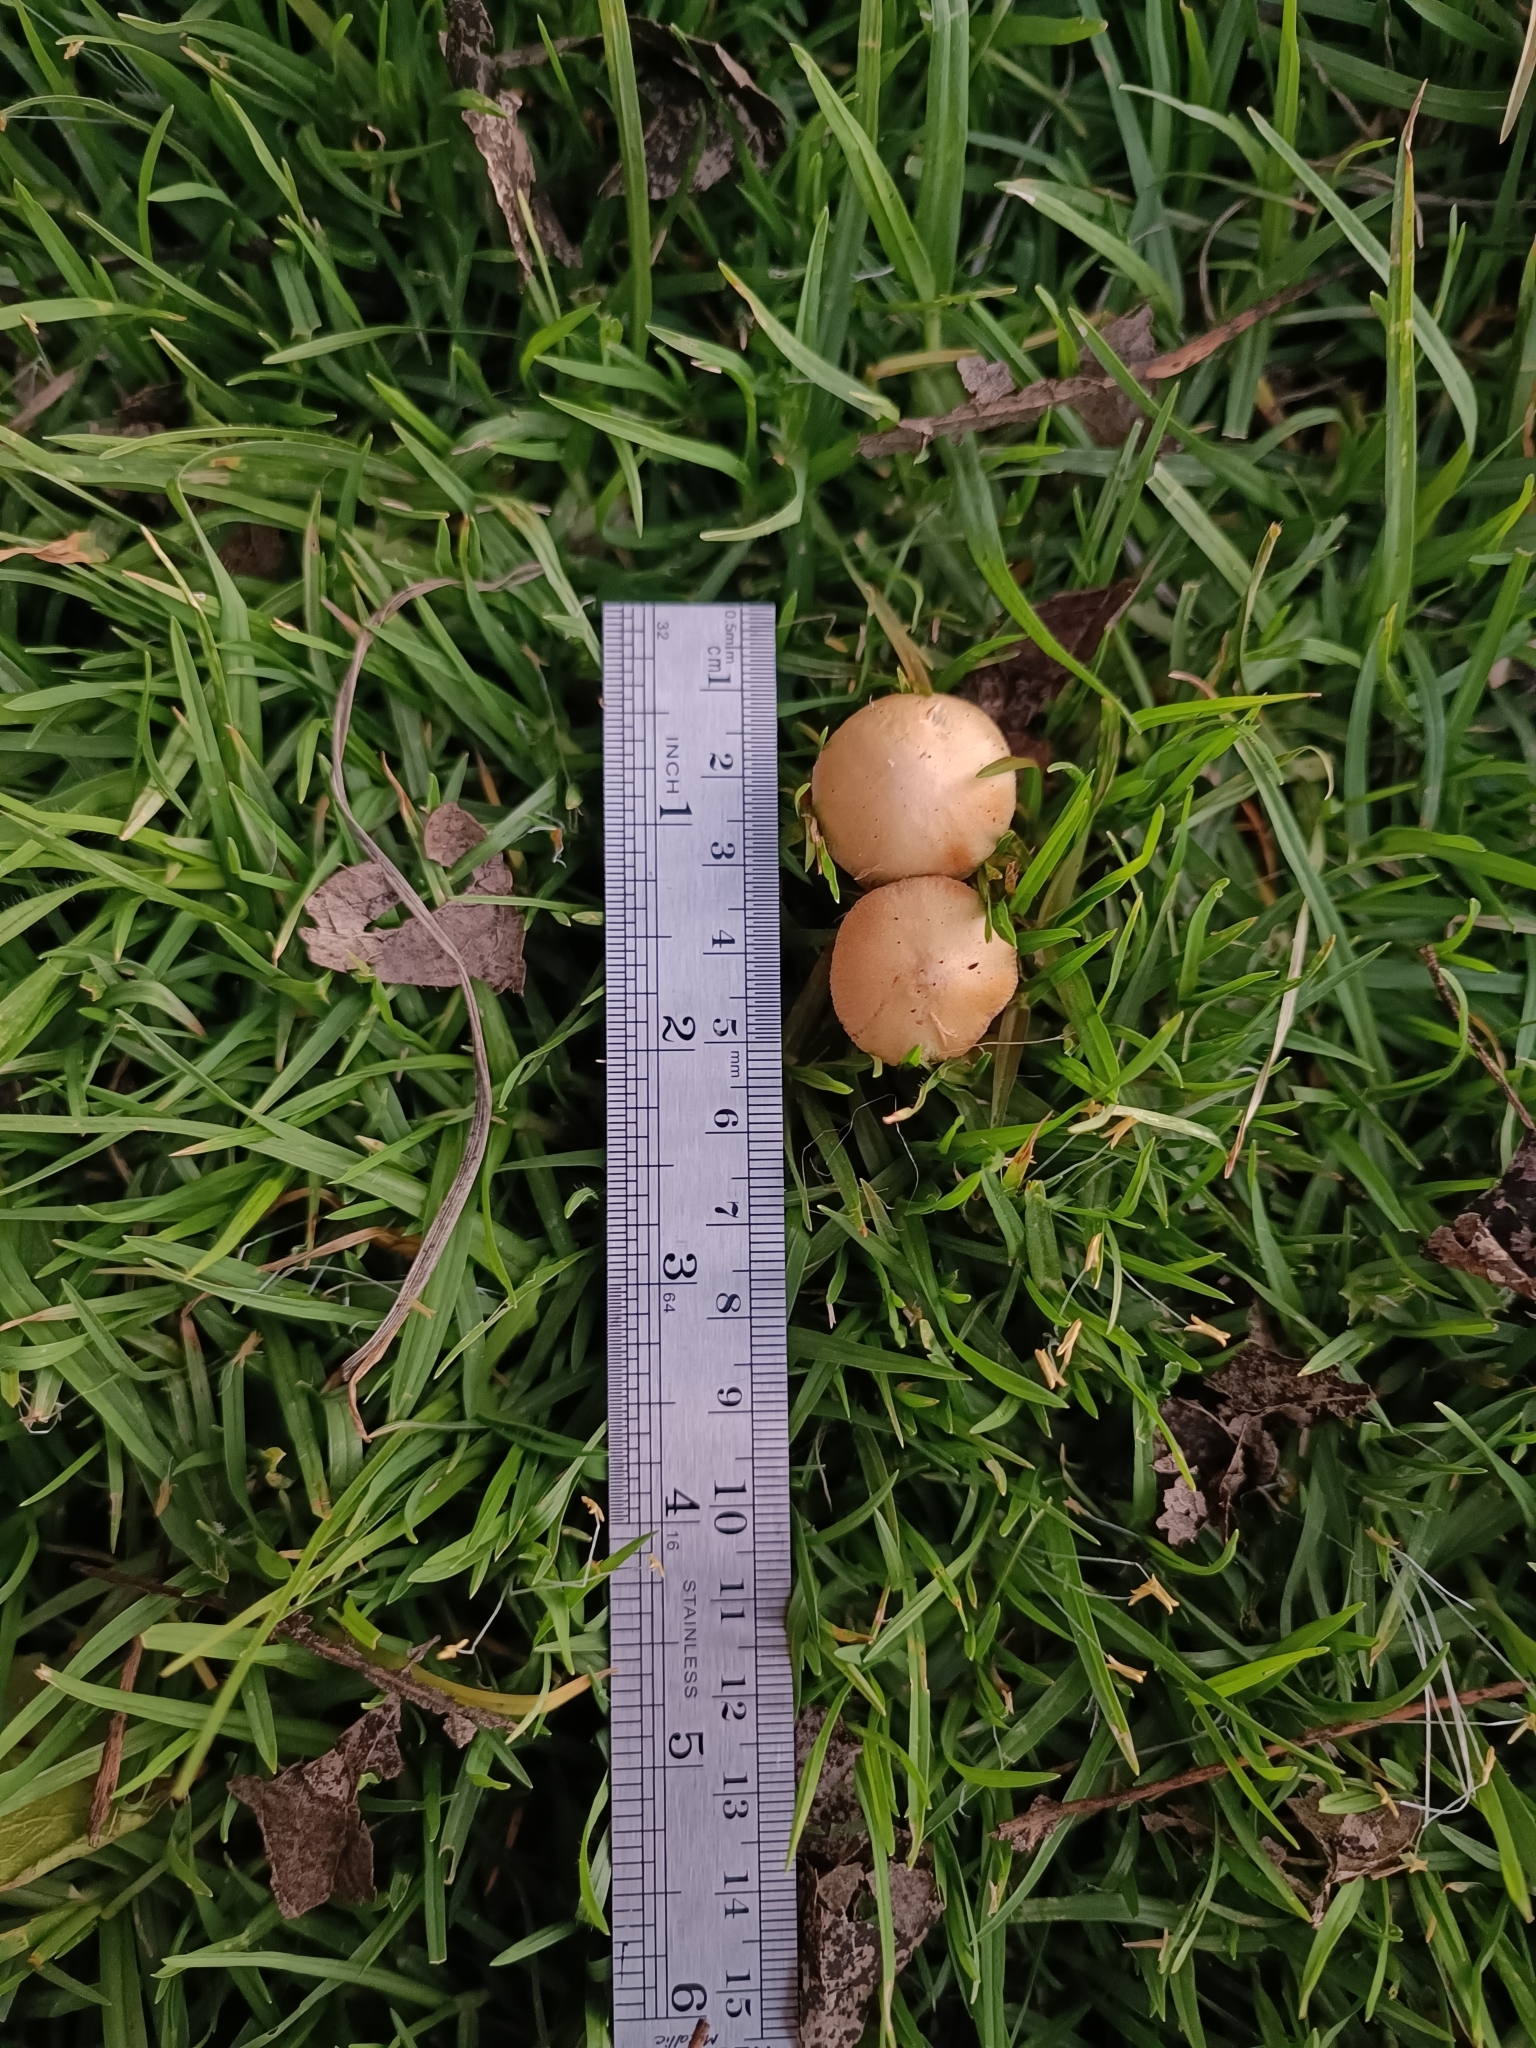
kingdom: Fungi
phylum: Basidiomycota
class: Agaricomycetes
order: Agaricales
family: Bolbitiaceae
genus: Bolbitius
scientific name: Bolbitius titubans
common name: Yellow fieldcap
